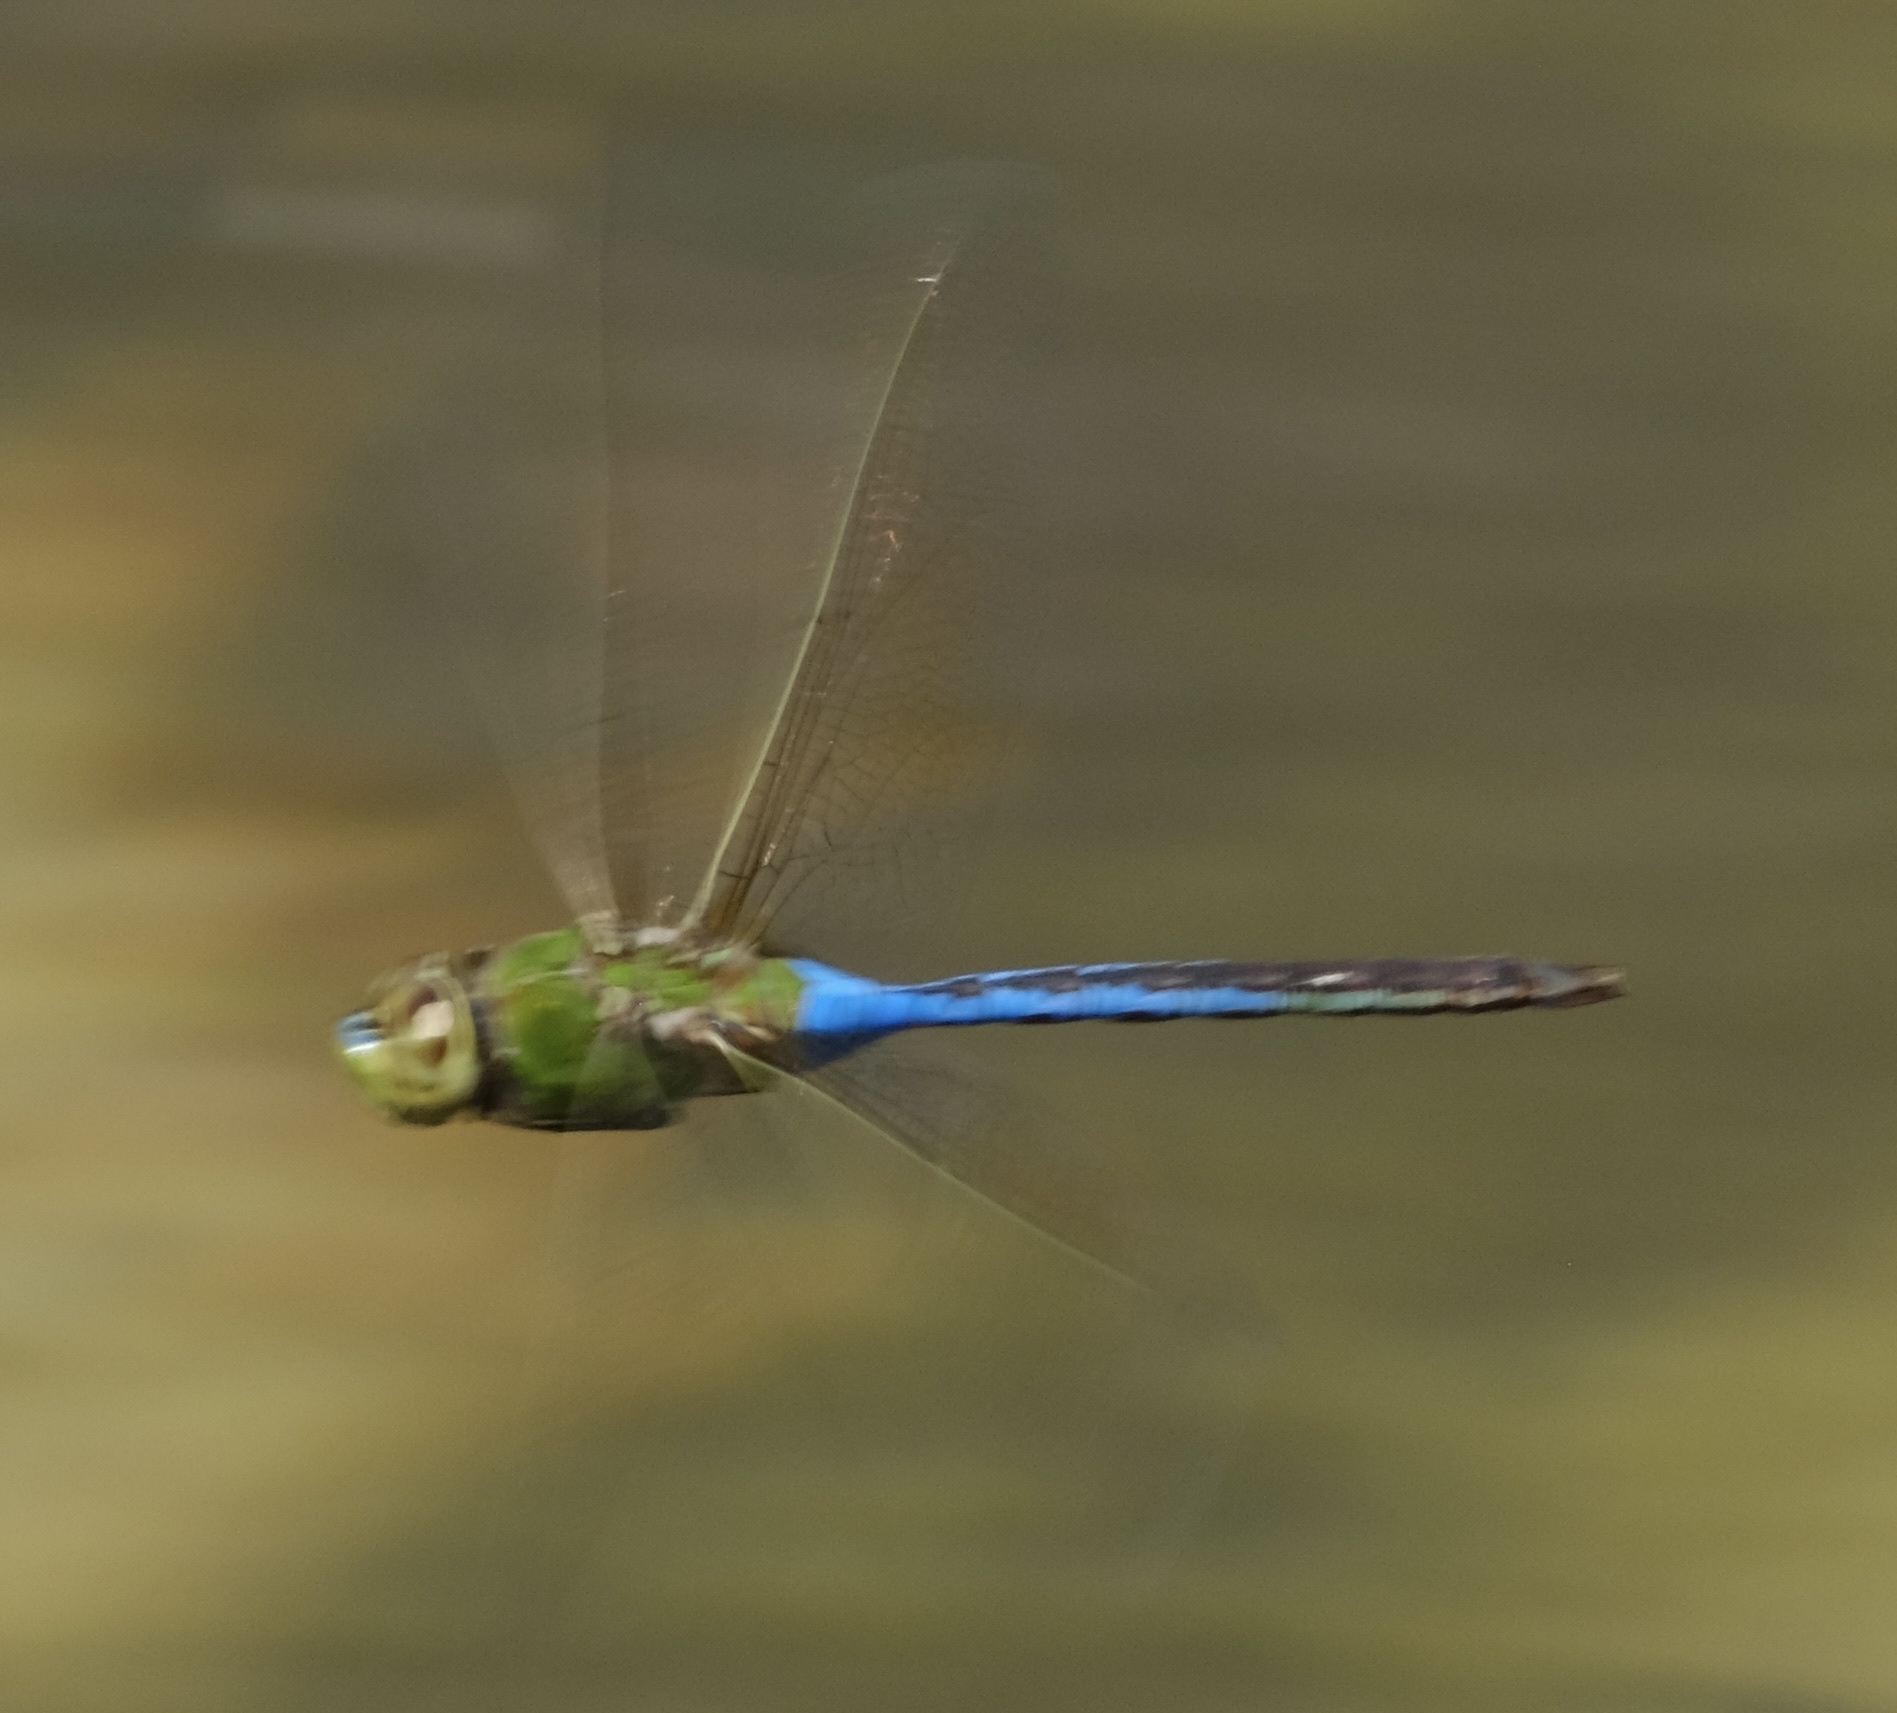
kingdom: Animalia
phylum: Arthropoda
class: Insecta
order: Odonata
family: Aeshnidae
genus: Anax
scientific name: Anax junius
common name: Common green darner
